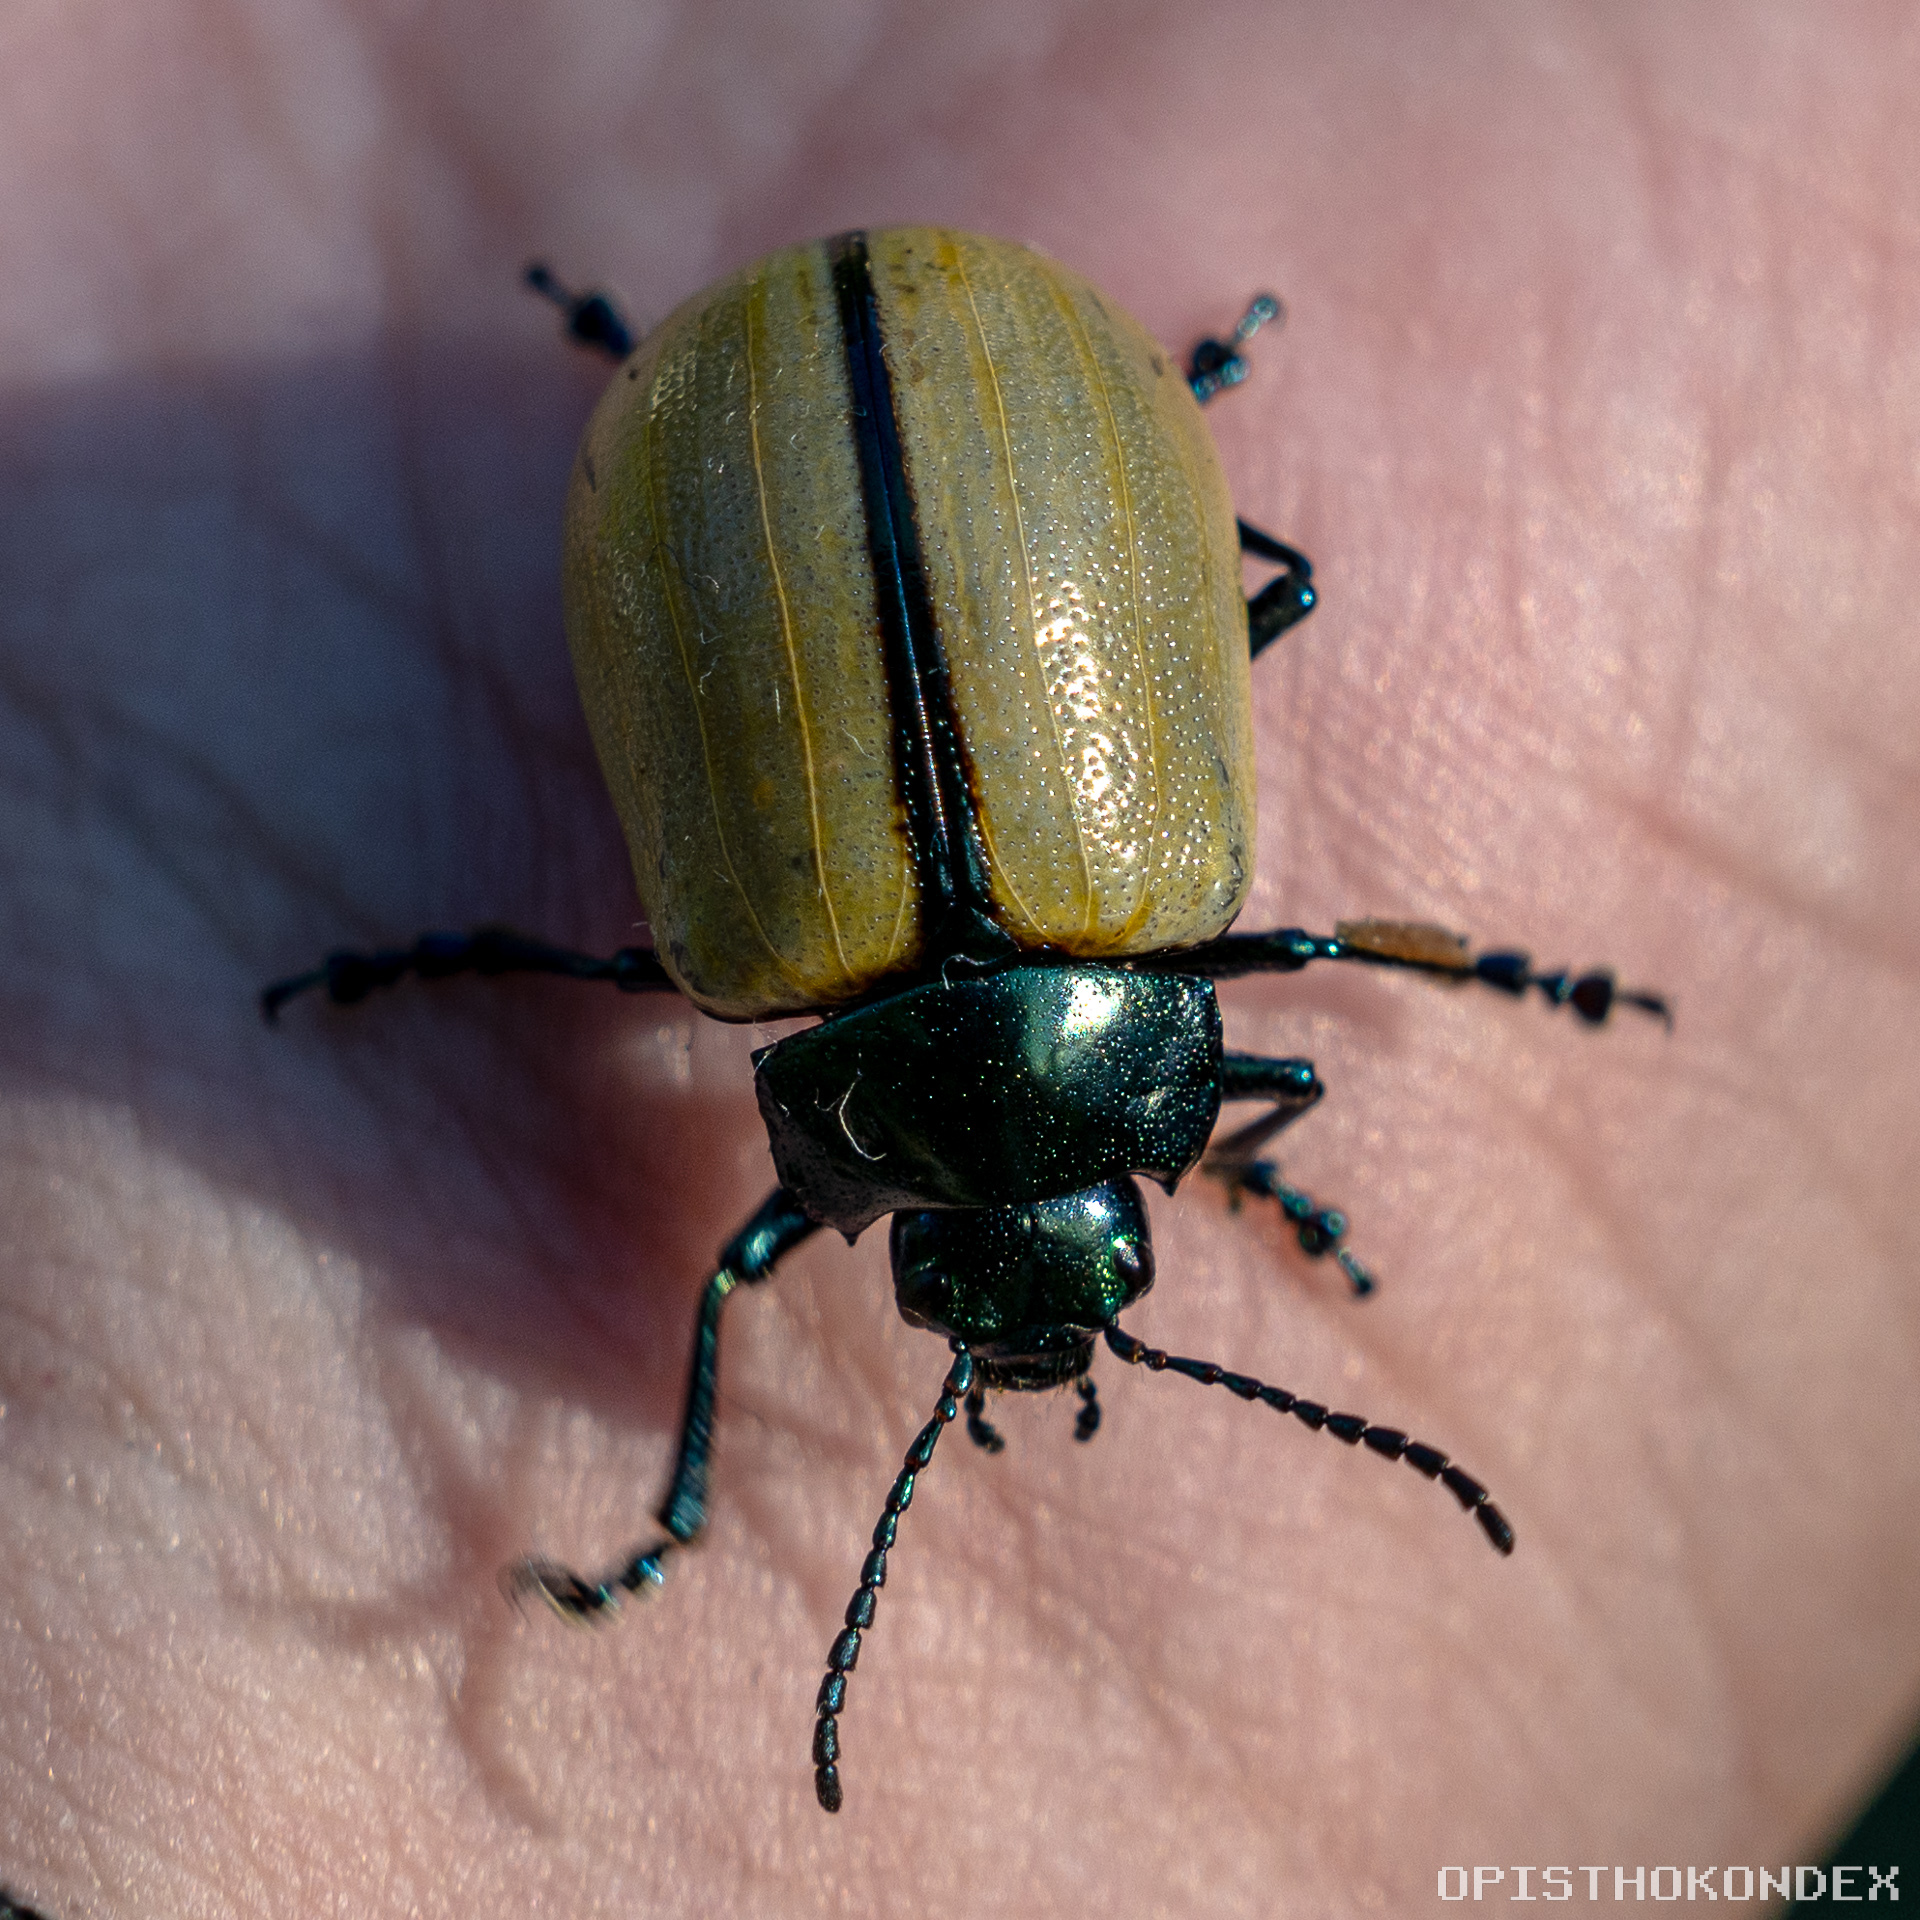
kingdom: Animalia
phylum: Arthropoda
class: Insecta
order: Coleoptera
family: Chrysomelidae
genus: Leptinotarsa
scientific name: Leptinotarsa
